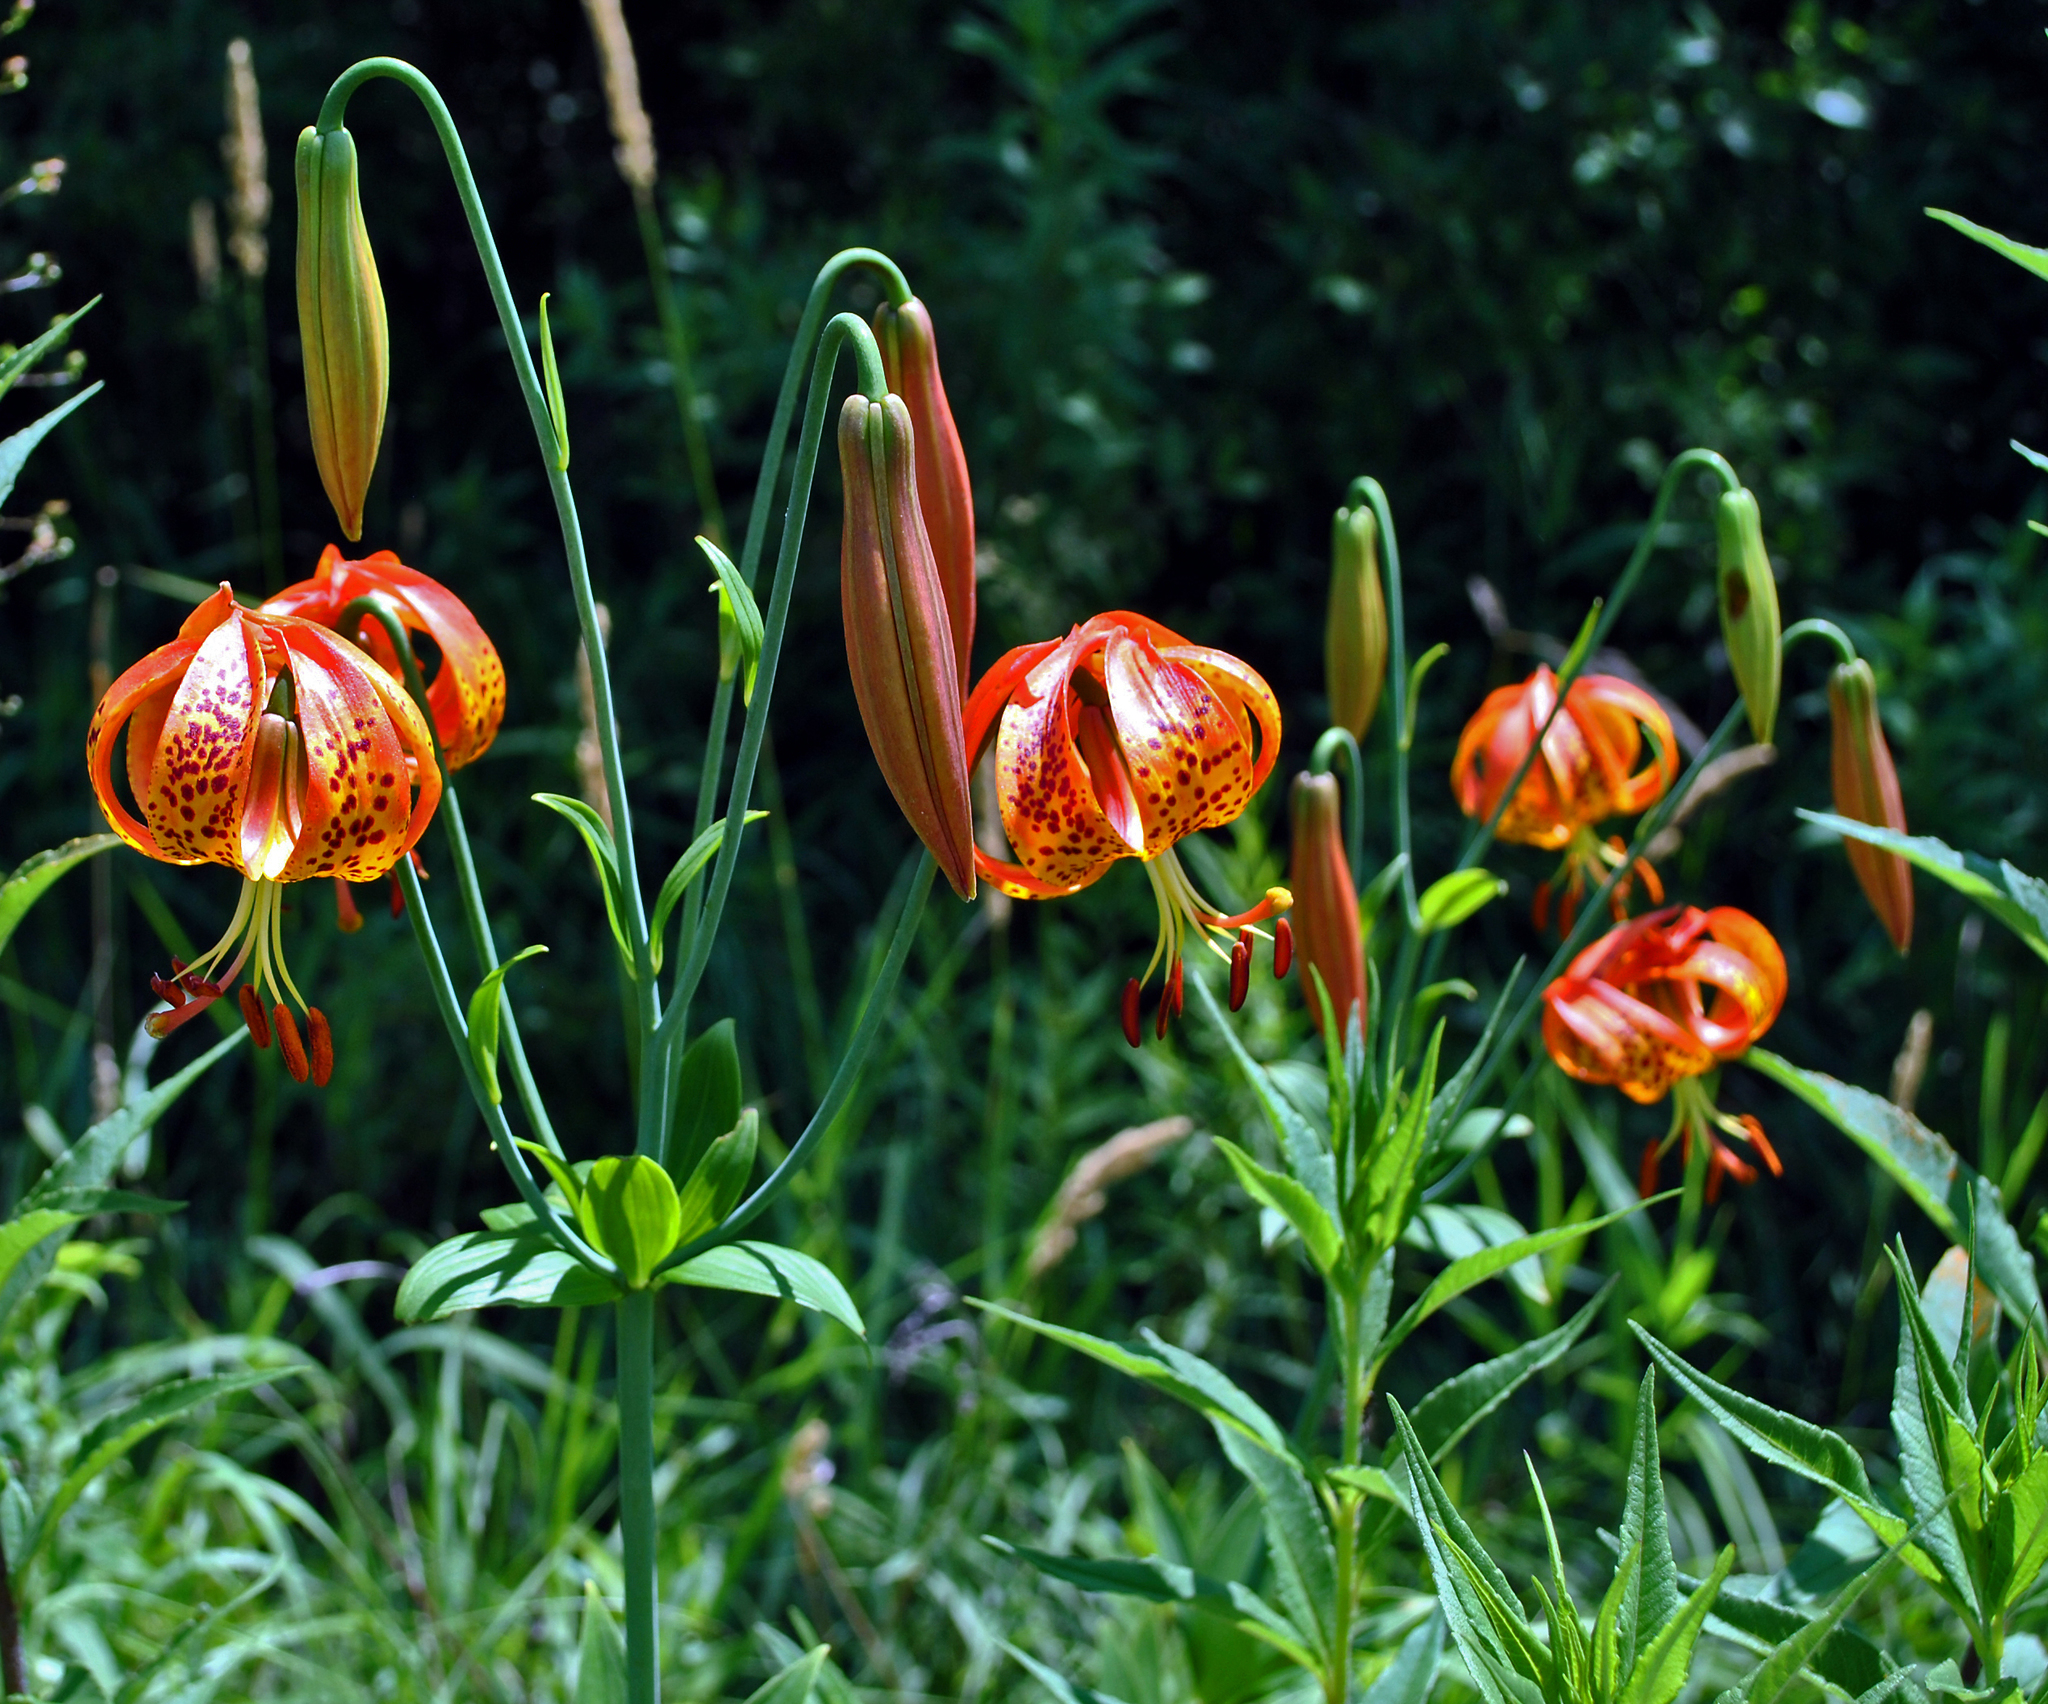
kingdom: Plantae
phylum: Tracheophyta
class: Liliopsida
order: Liliales
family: Liliaceae
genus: Lilium
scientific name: Lilium michiganense
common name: Michigan lily
